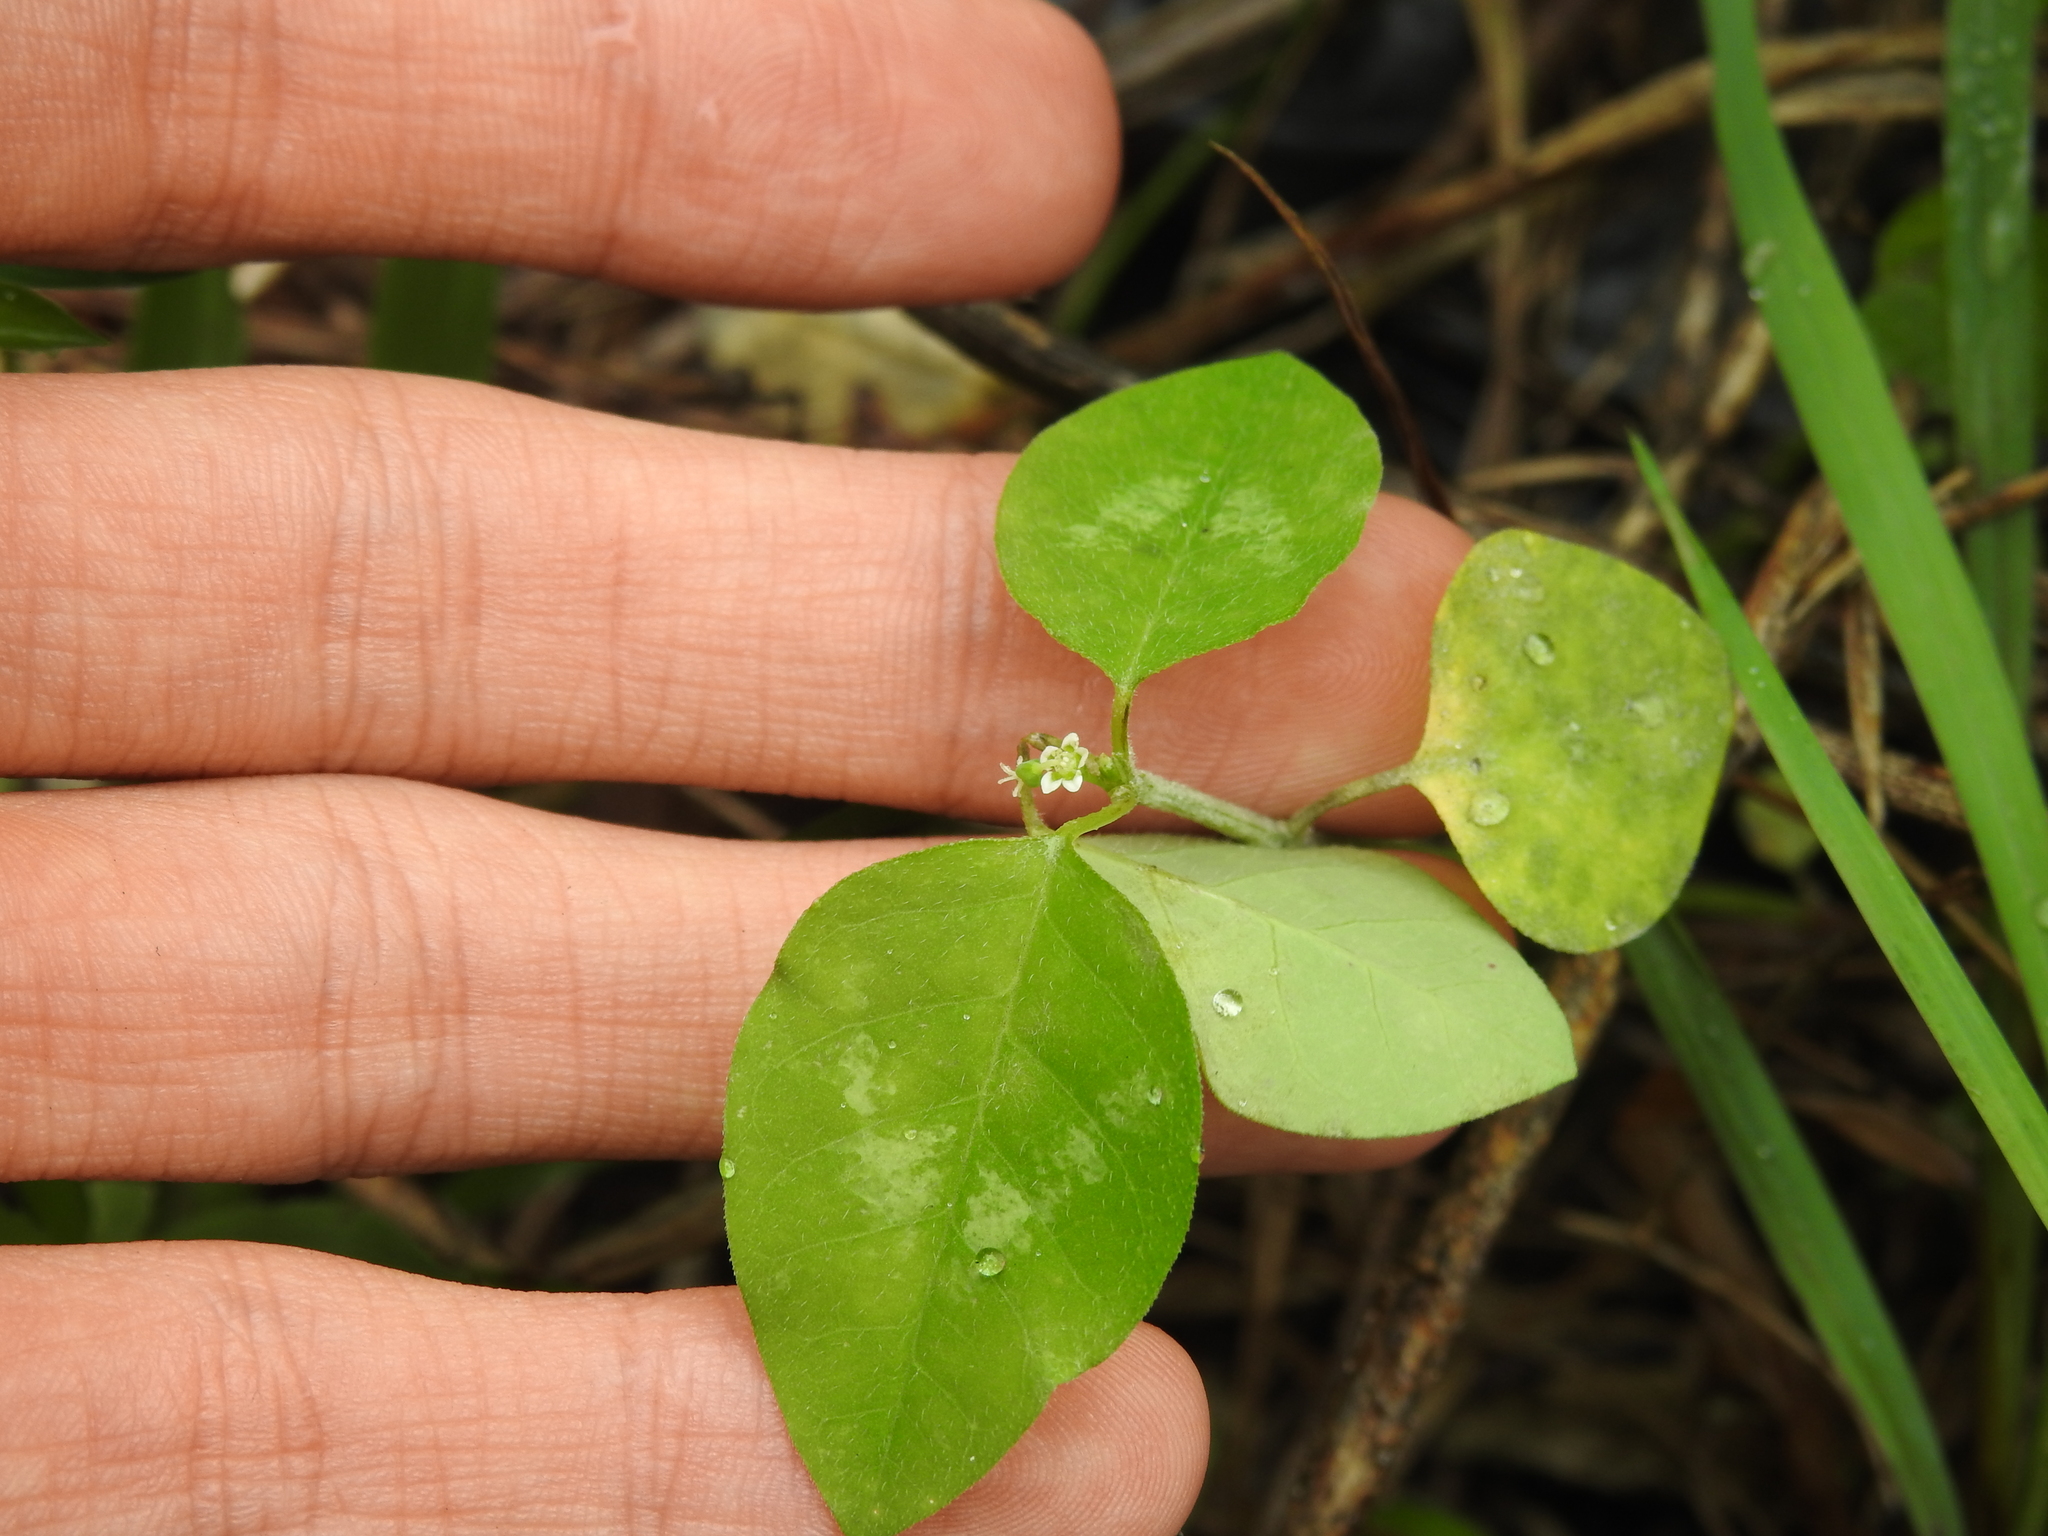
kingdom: Plantae
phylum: Tracheophyta
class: Magnoliopsida
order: Malpighiales
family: Euphorbiaceae
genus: Euphorbia
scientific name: Euphorbia graminea
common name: Grassleaf spurge
